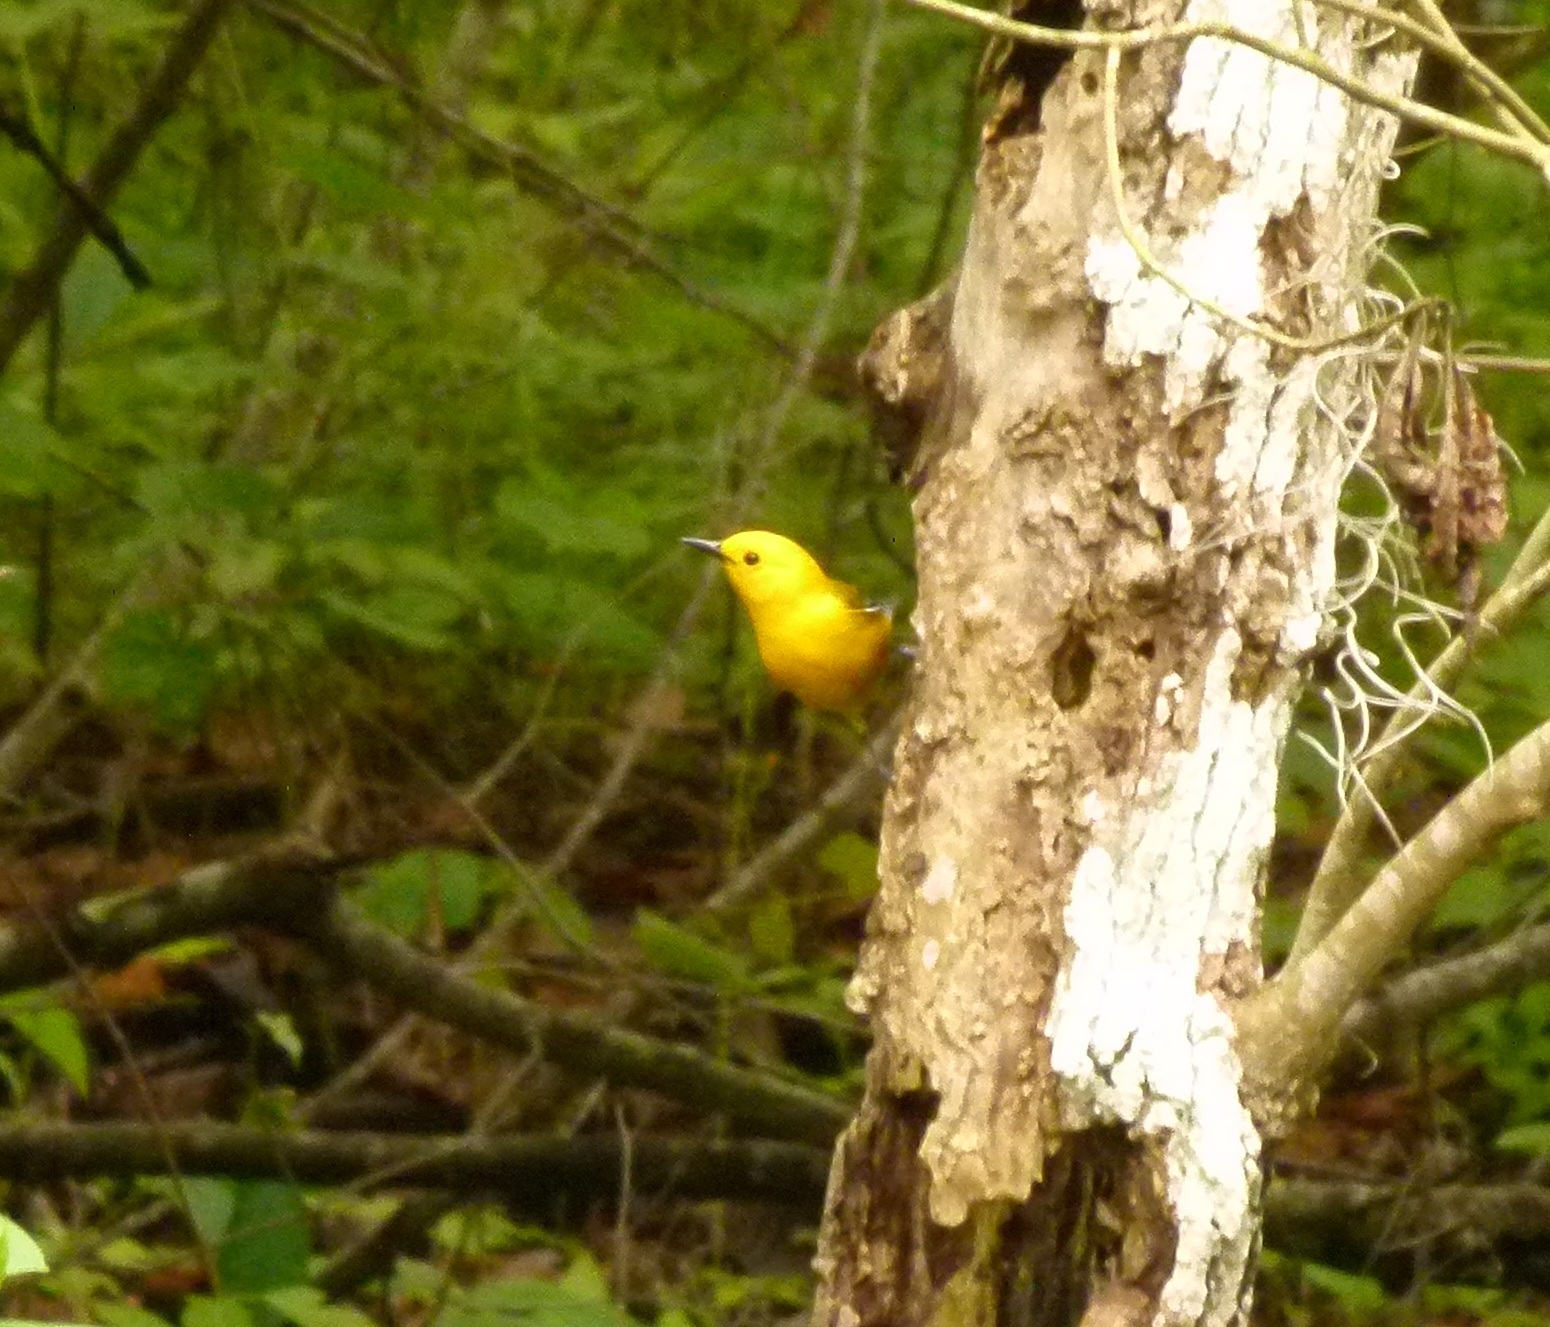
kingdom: Animalia
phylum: Chordata
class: Aves
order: Passeriformes
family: Parulidae
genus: Protonotaria
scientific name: Protonotaria citrea
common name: Prothonotary warbler
